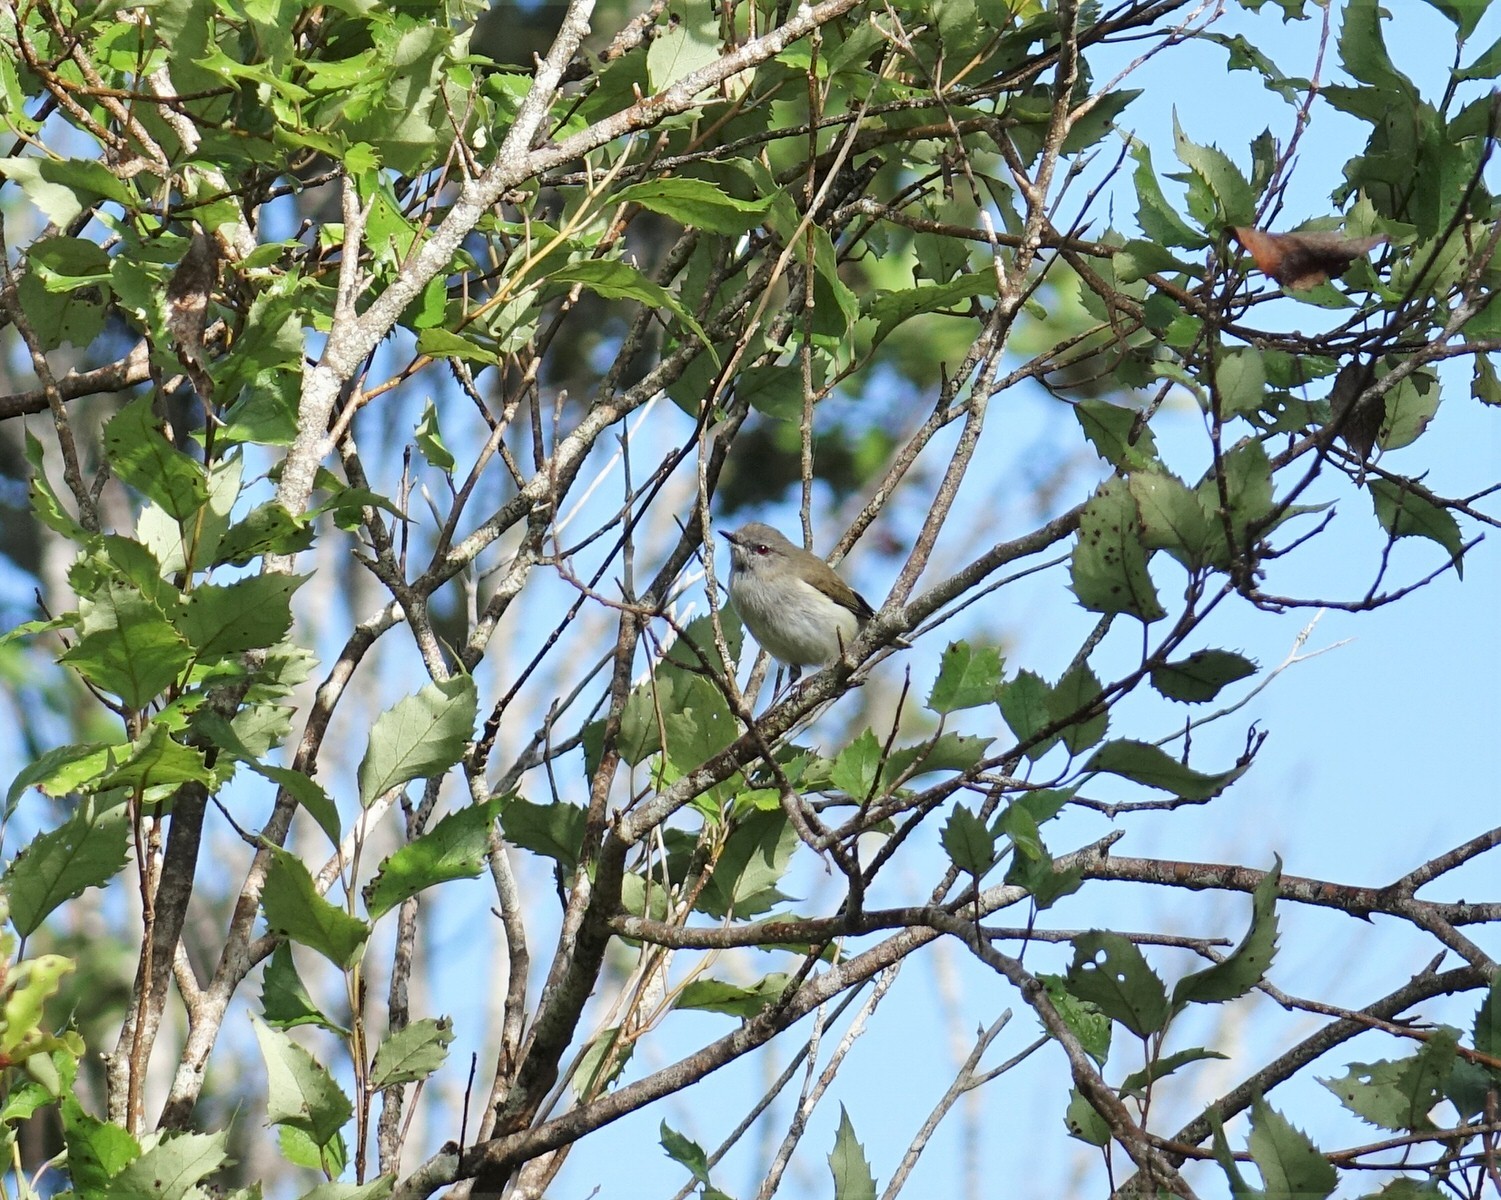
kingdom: Animalia
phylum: Chordata
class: Aves
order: Passeriformes
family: Acanthizidae
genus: Gerygone
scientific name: Gerygone igata
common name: Grey gerygone
